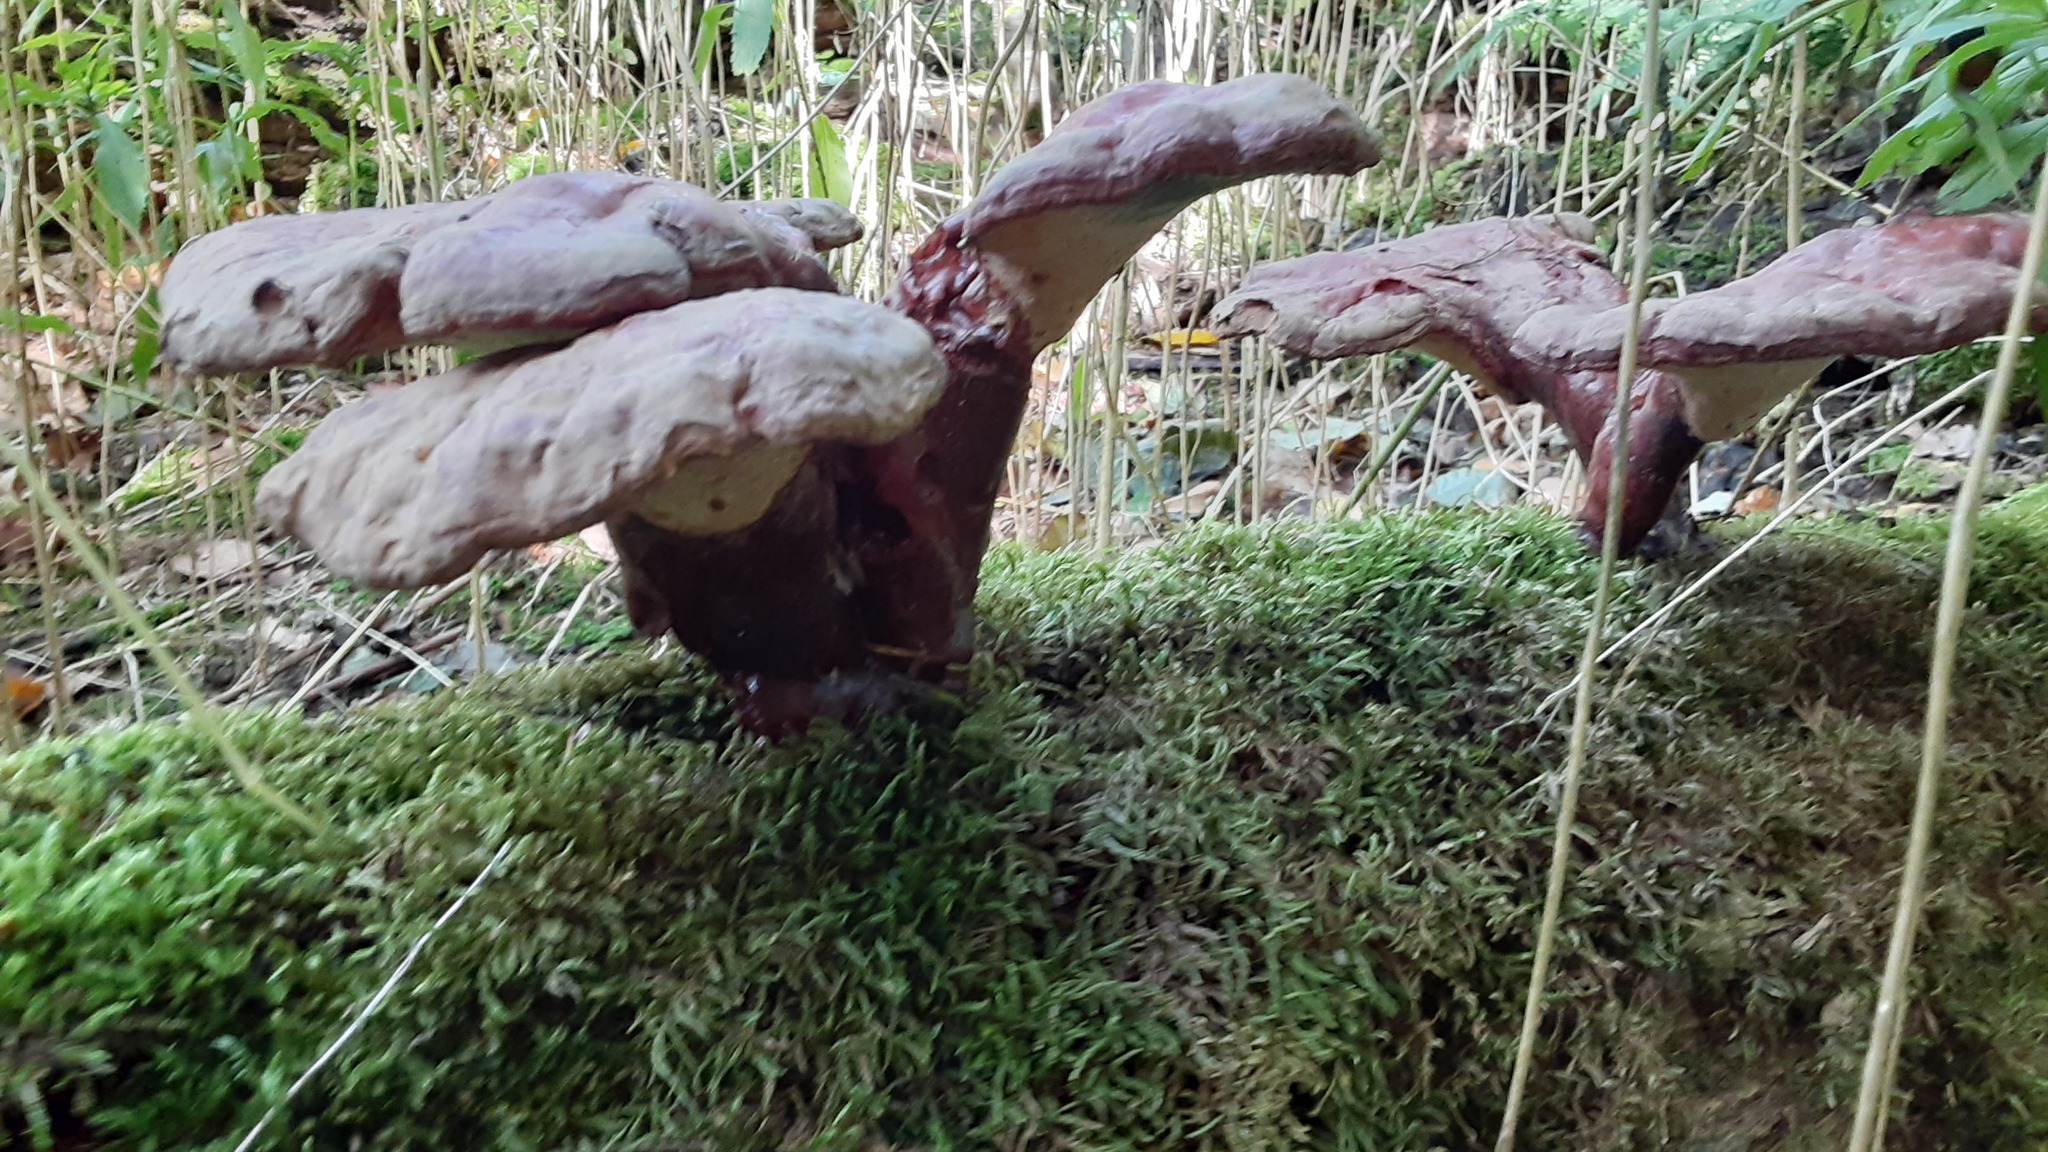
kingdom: Fungi
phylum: Basidiomycota
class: Agaricomycetes
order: Polyporales
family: Polyporaceae
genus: Ganoderma
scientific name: Ganoderma tsugae
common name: Hemlock varnish shelf
